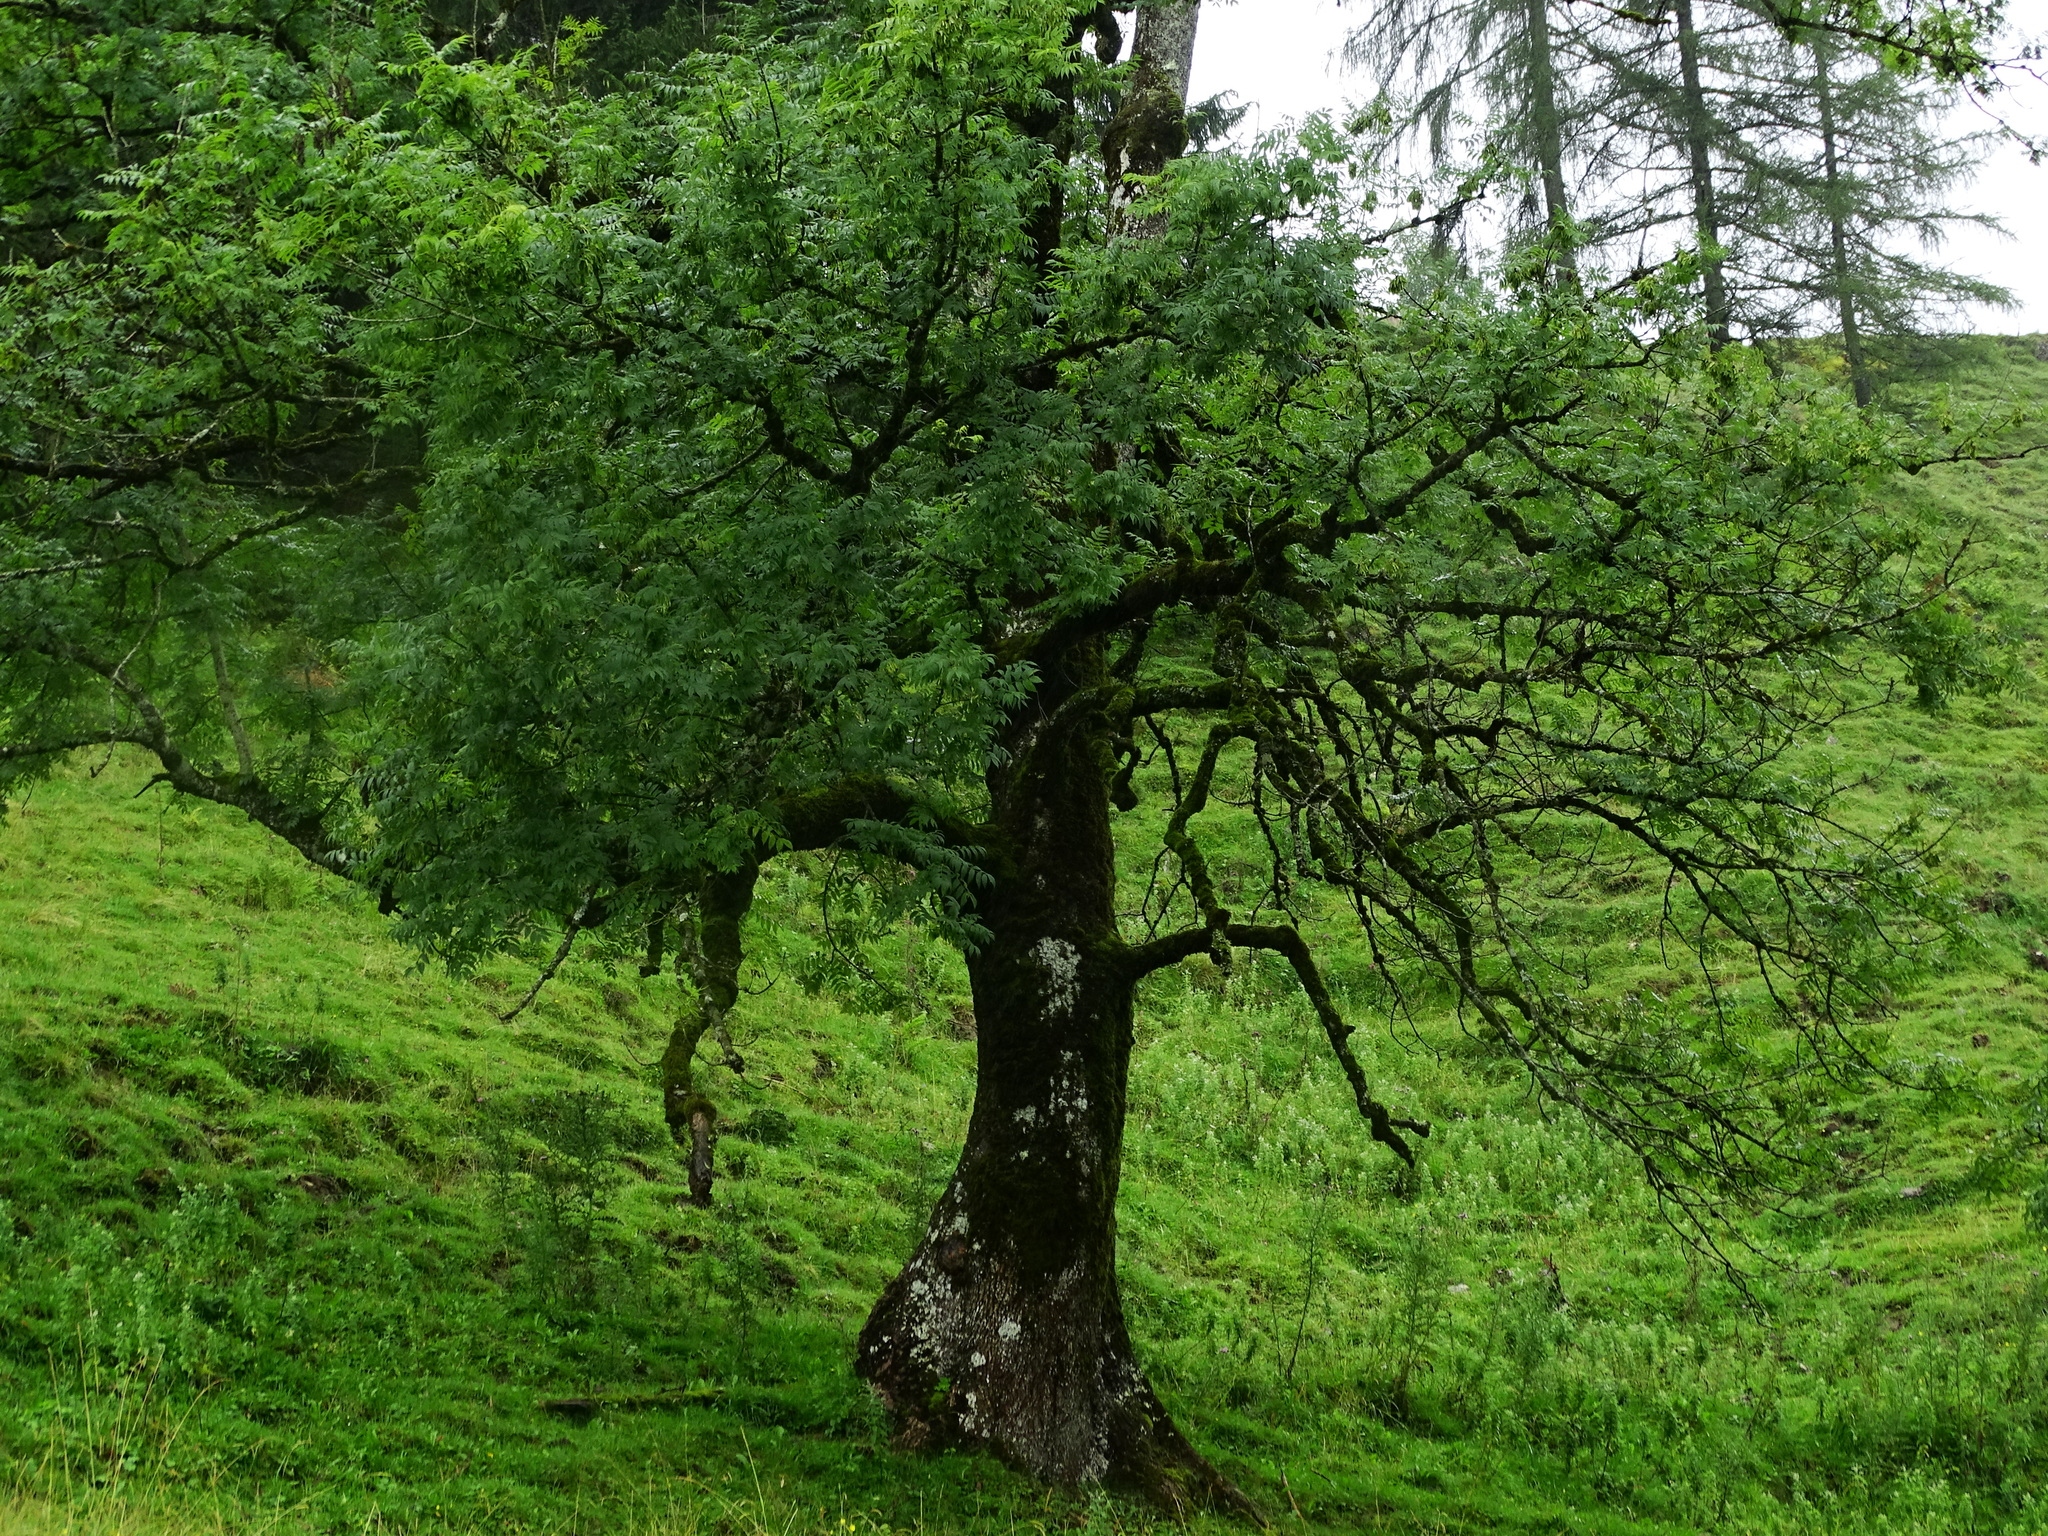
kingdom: Plantae
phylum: Tracheophyta
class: Magnoliopsida
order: Lamiales
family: Oleaceae
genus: Fraxinus
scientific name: Fraxinus excelsior
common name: European ash
